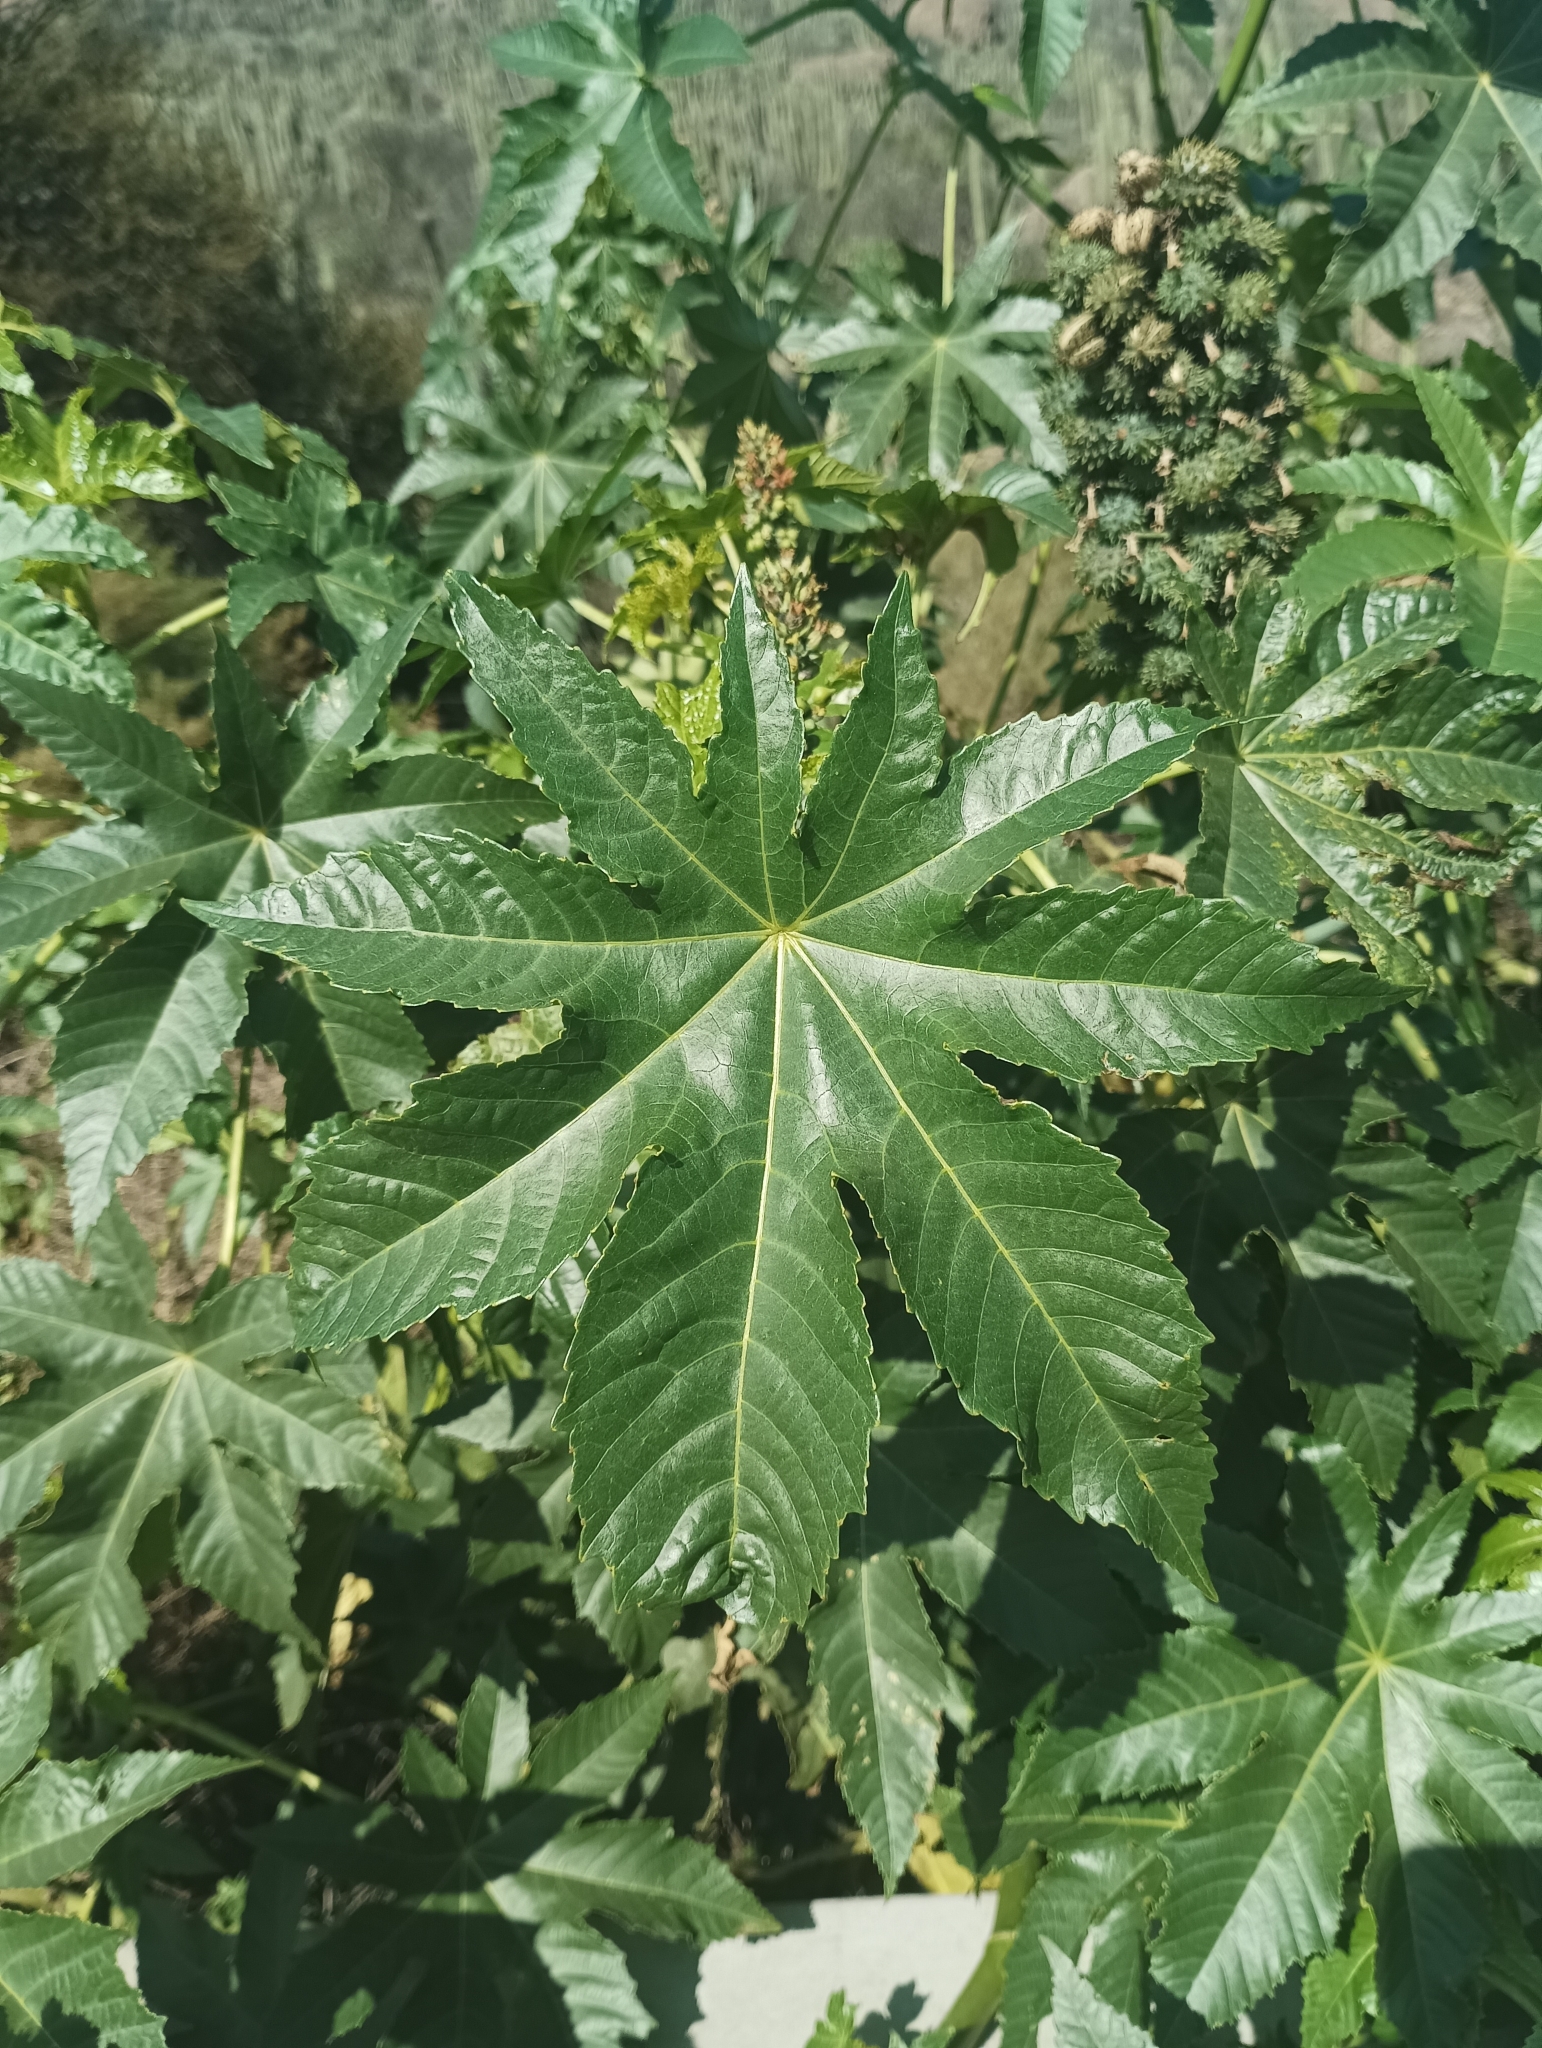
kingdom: Plantae
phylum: Tracheophyta
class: Magnoliopsida
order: Malpighiales
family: Euphorbiaceae
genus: Ricinus
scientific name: Ricinus communis
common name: Castor-oil-plant
